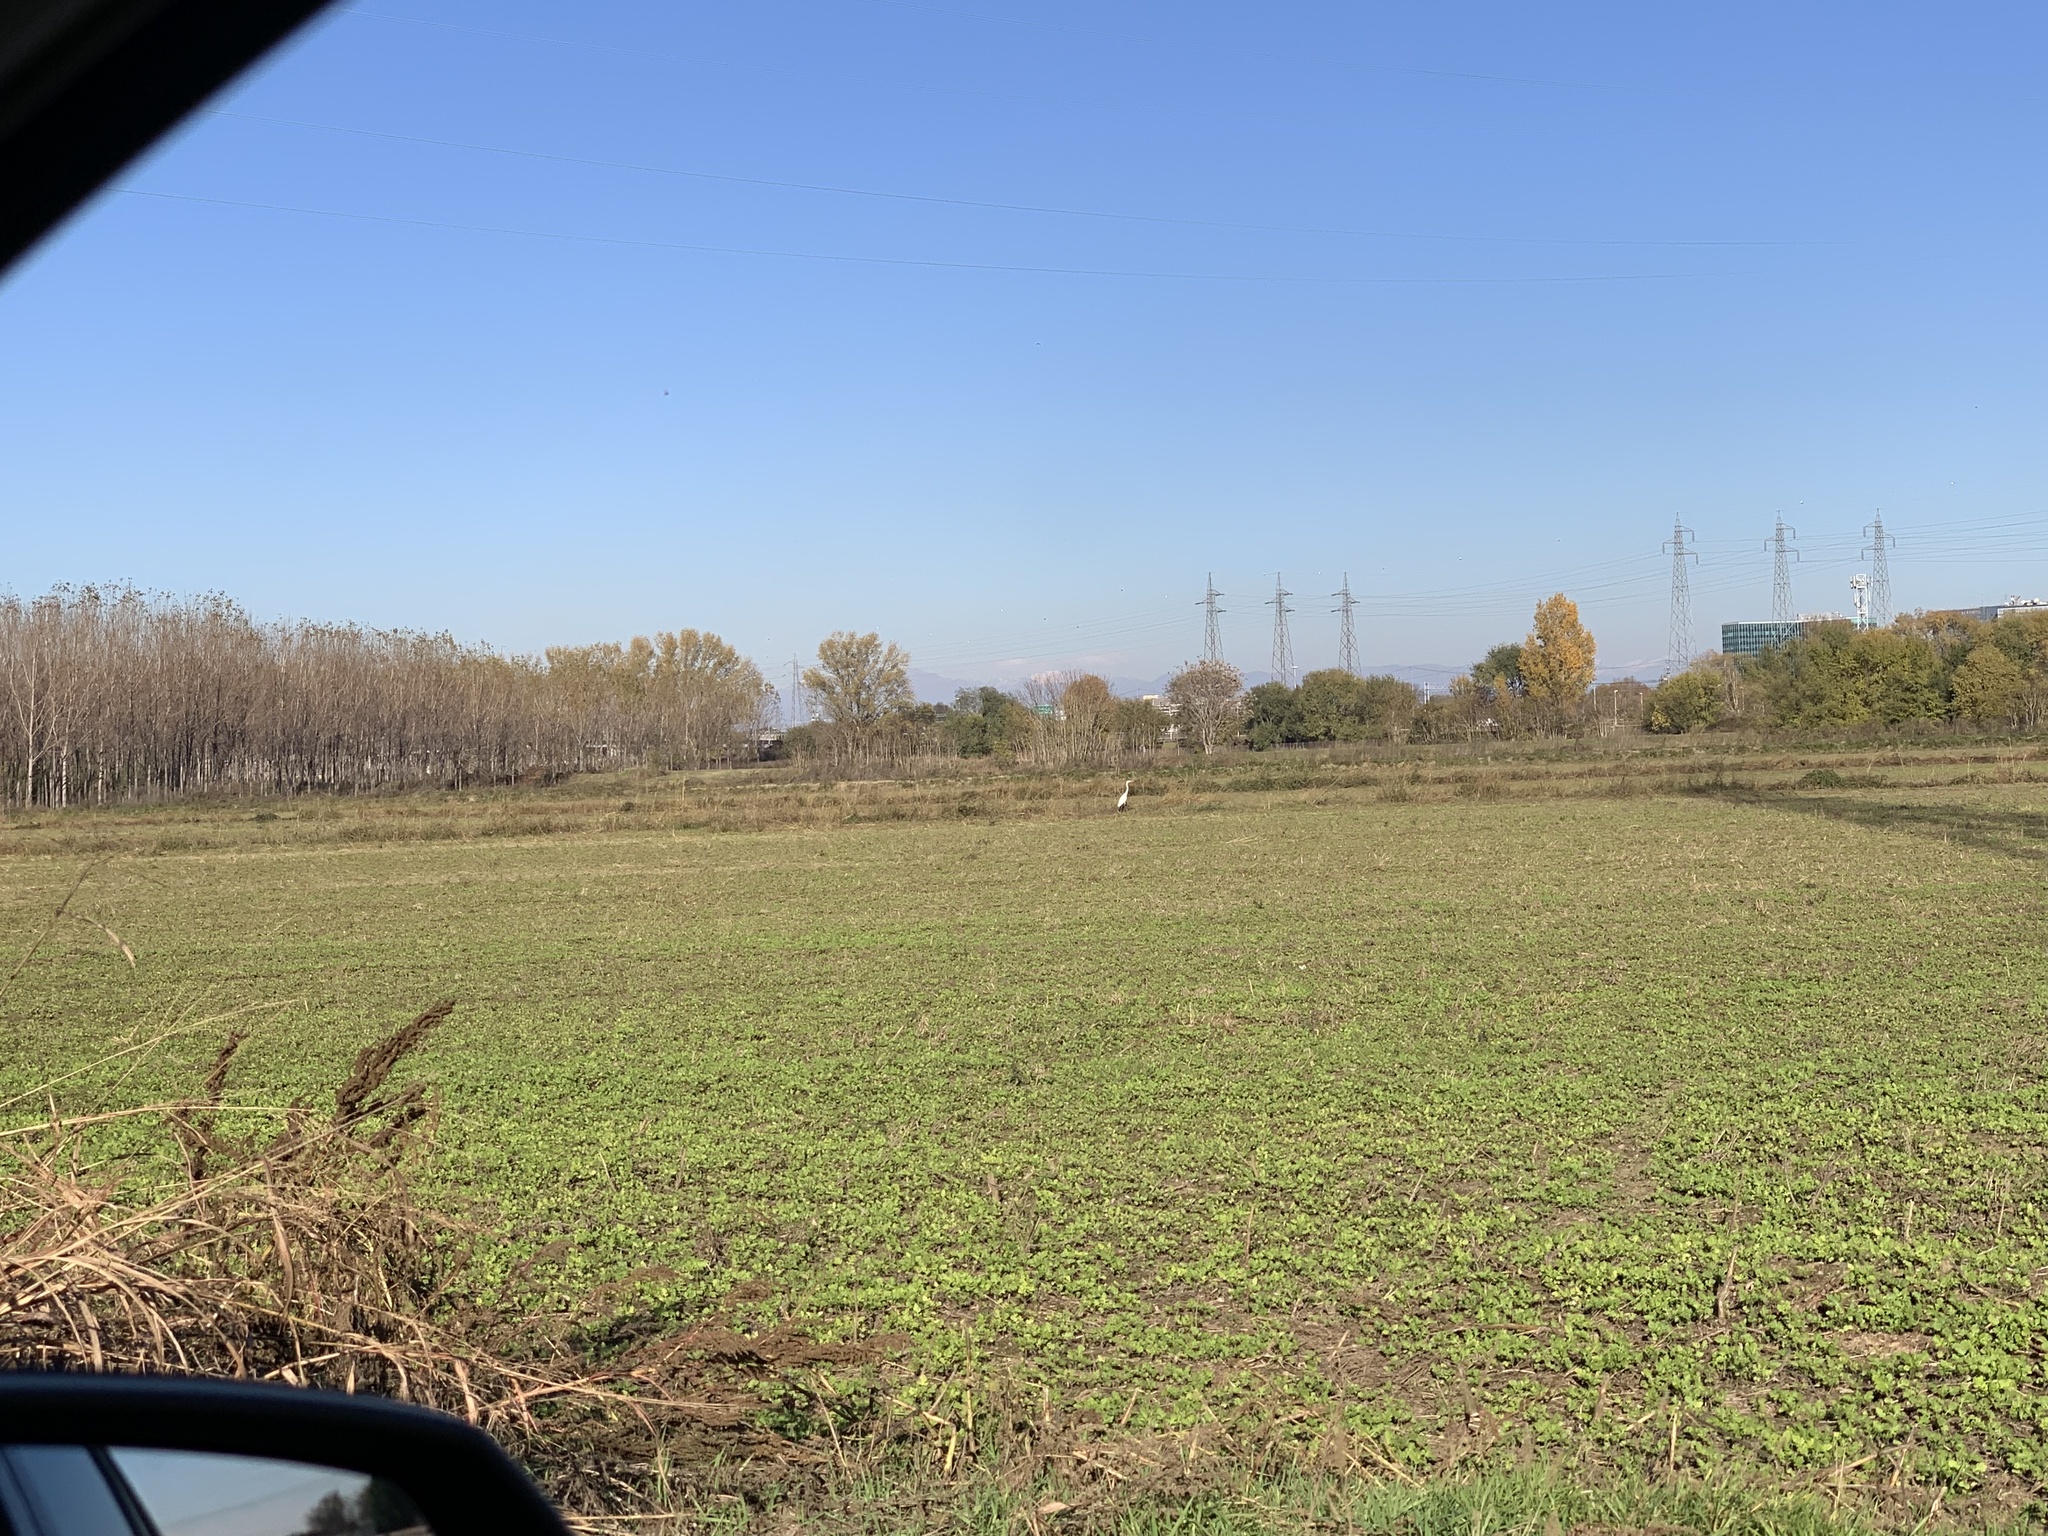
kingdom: Animalia
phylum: Chordata
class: Aves
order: Pelecaniformes
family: Ardeidae
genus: Ardea
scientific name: Ardea alba
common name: Great egret
